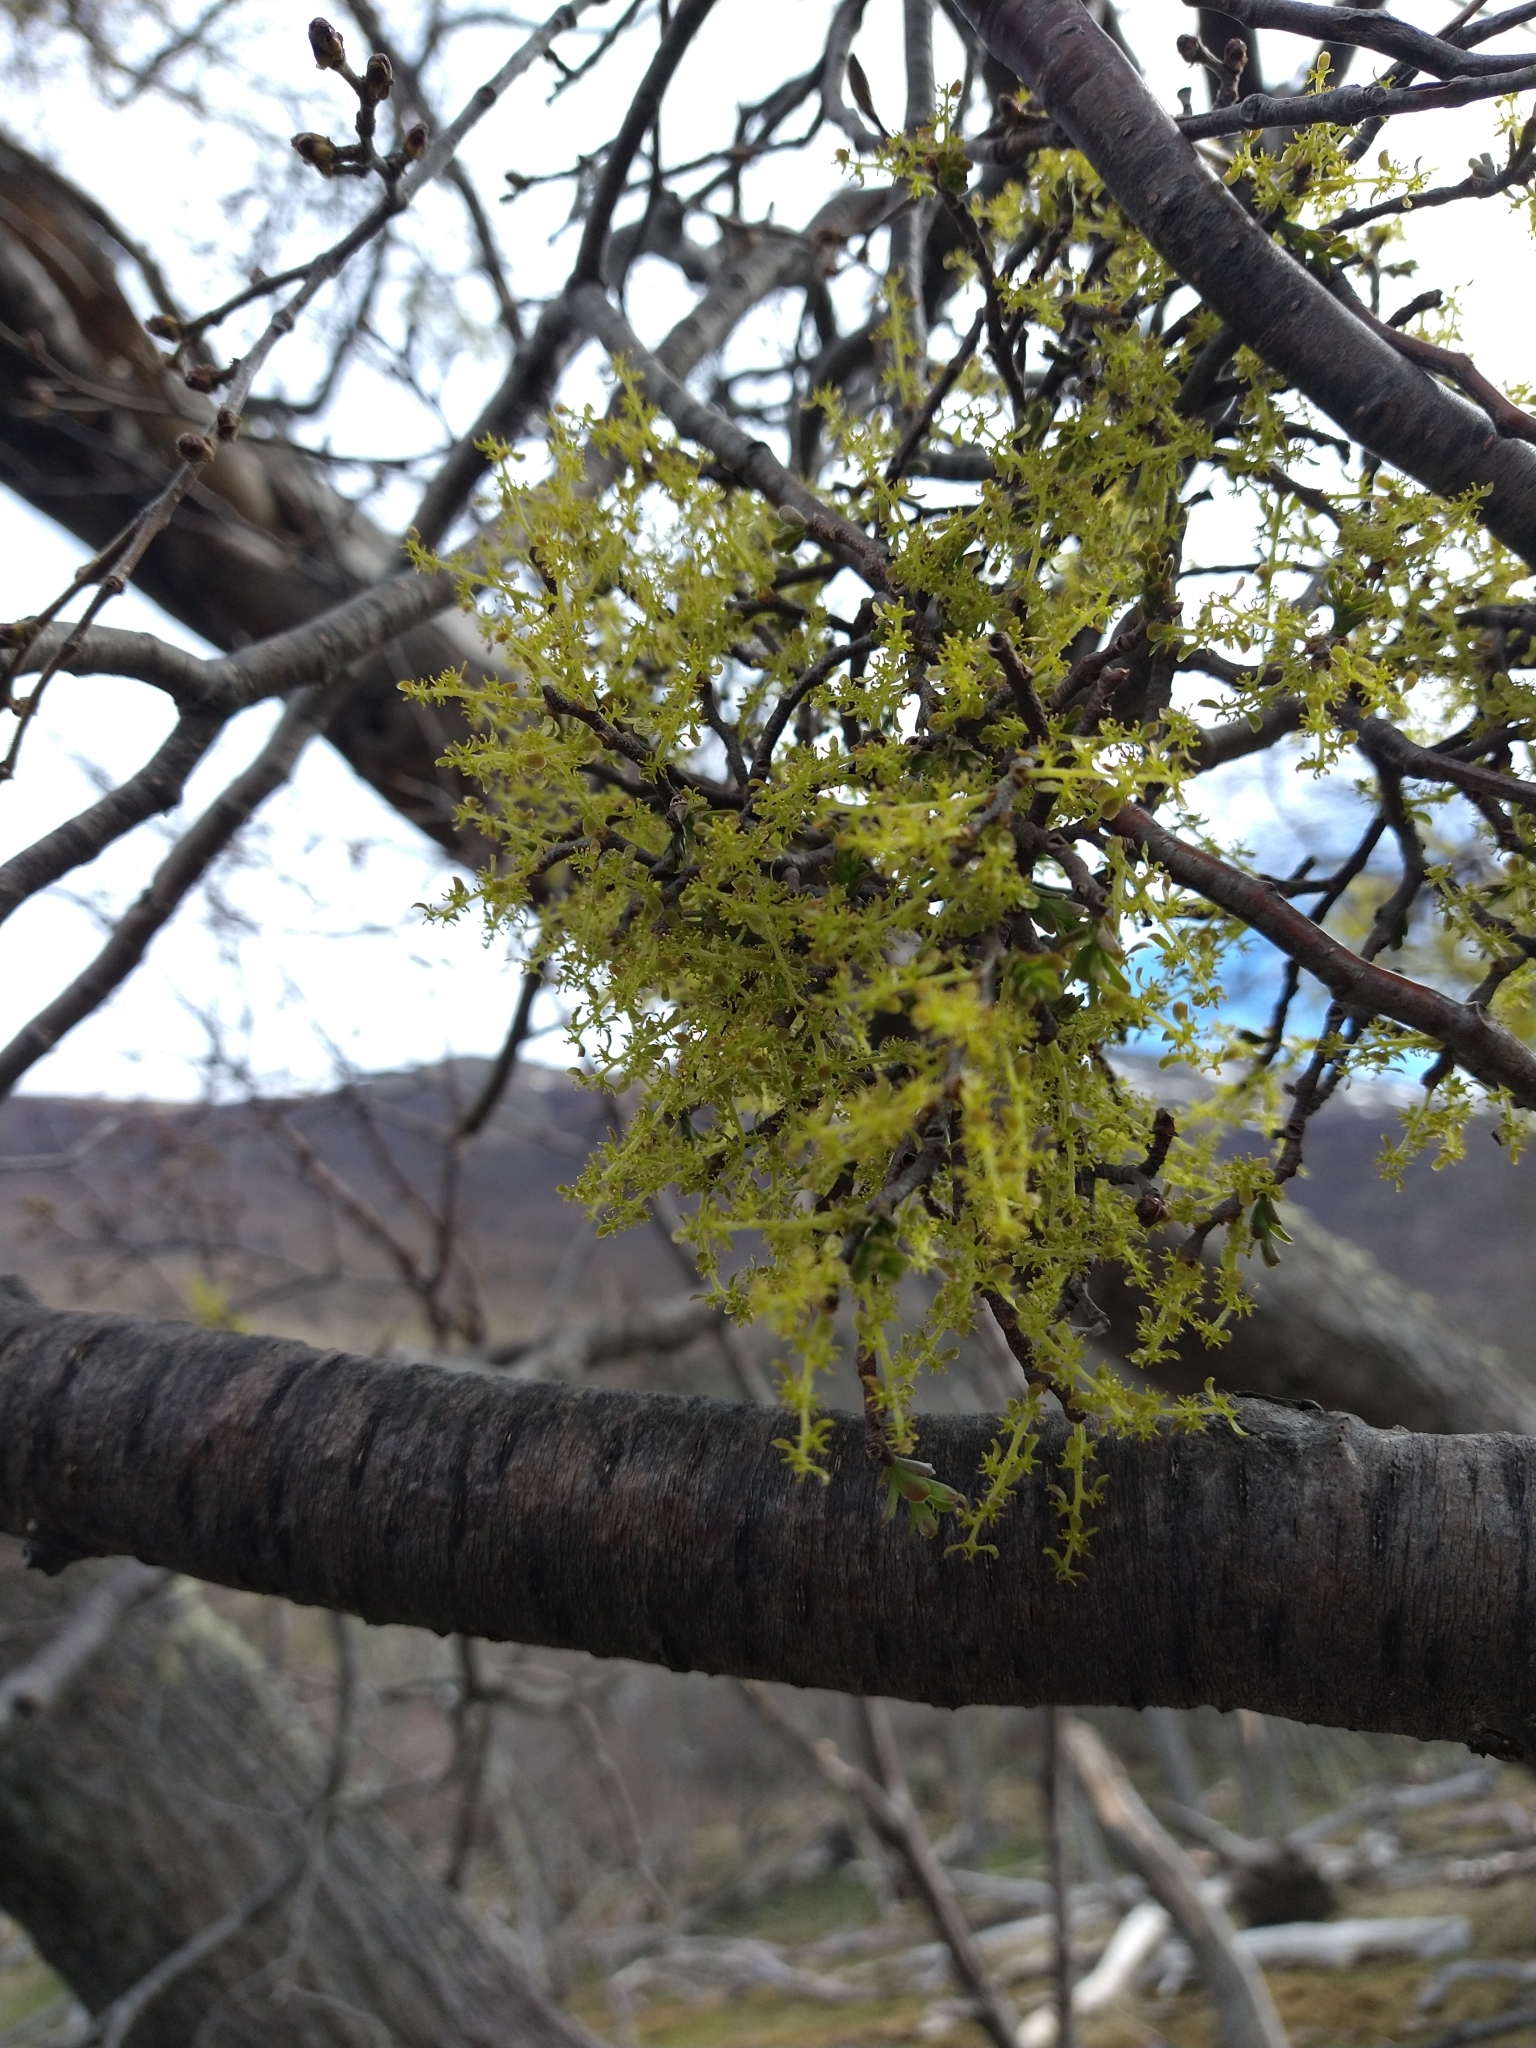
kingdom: Plantae
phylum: Tracheophyta
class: Magnoliopsida
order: Santalales
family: Misodendraceae
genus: Misodendrum
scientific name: Misodendrum punctulatum
